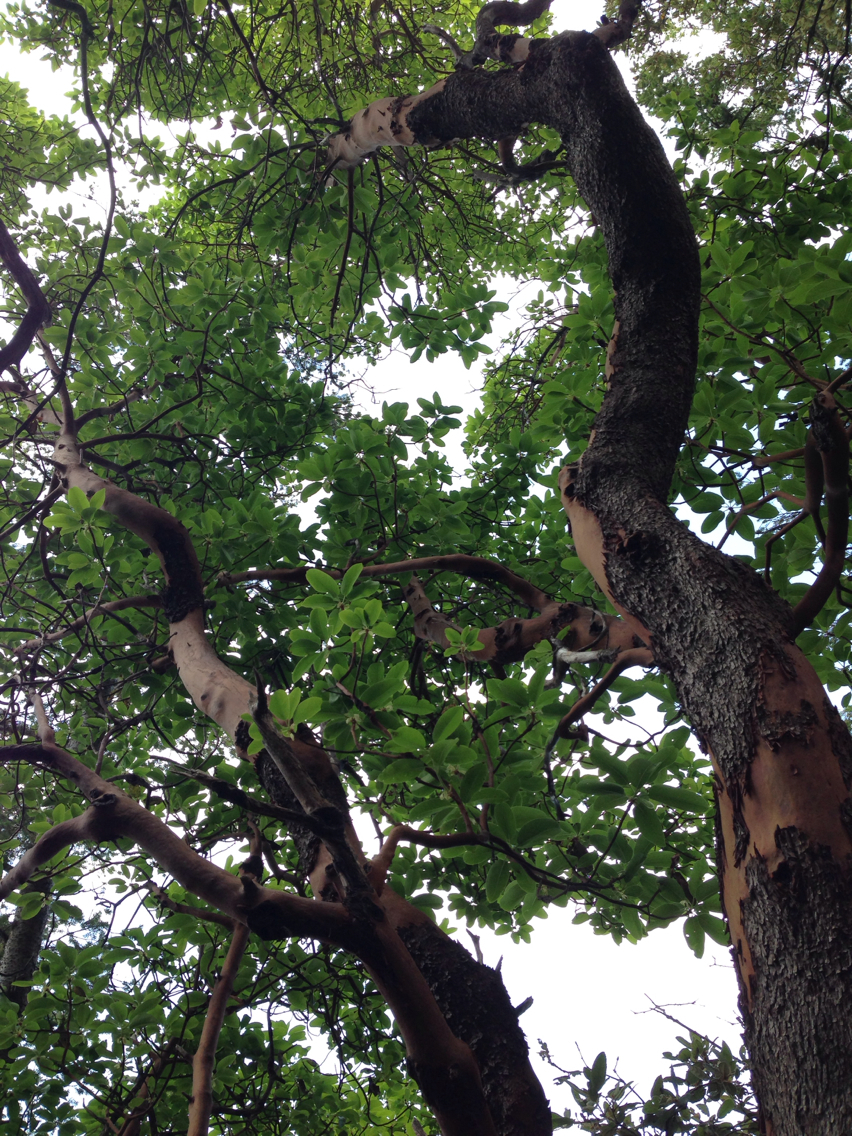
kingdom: Plantae
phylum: Tracheophyta
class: Magnoliopsida
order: Ericales
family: Ericaceae
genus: Arbutus
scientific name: Arbutus menziesii
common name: Pacific madrone
